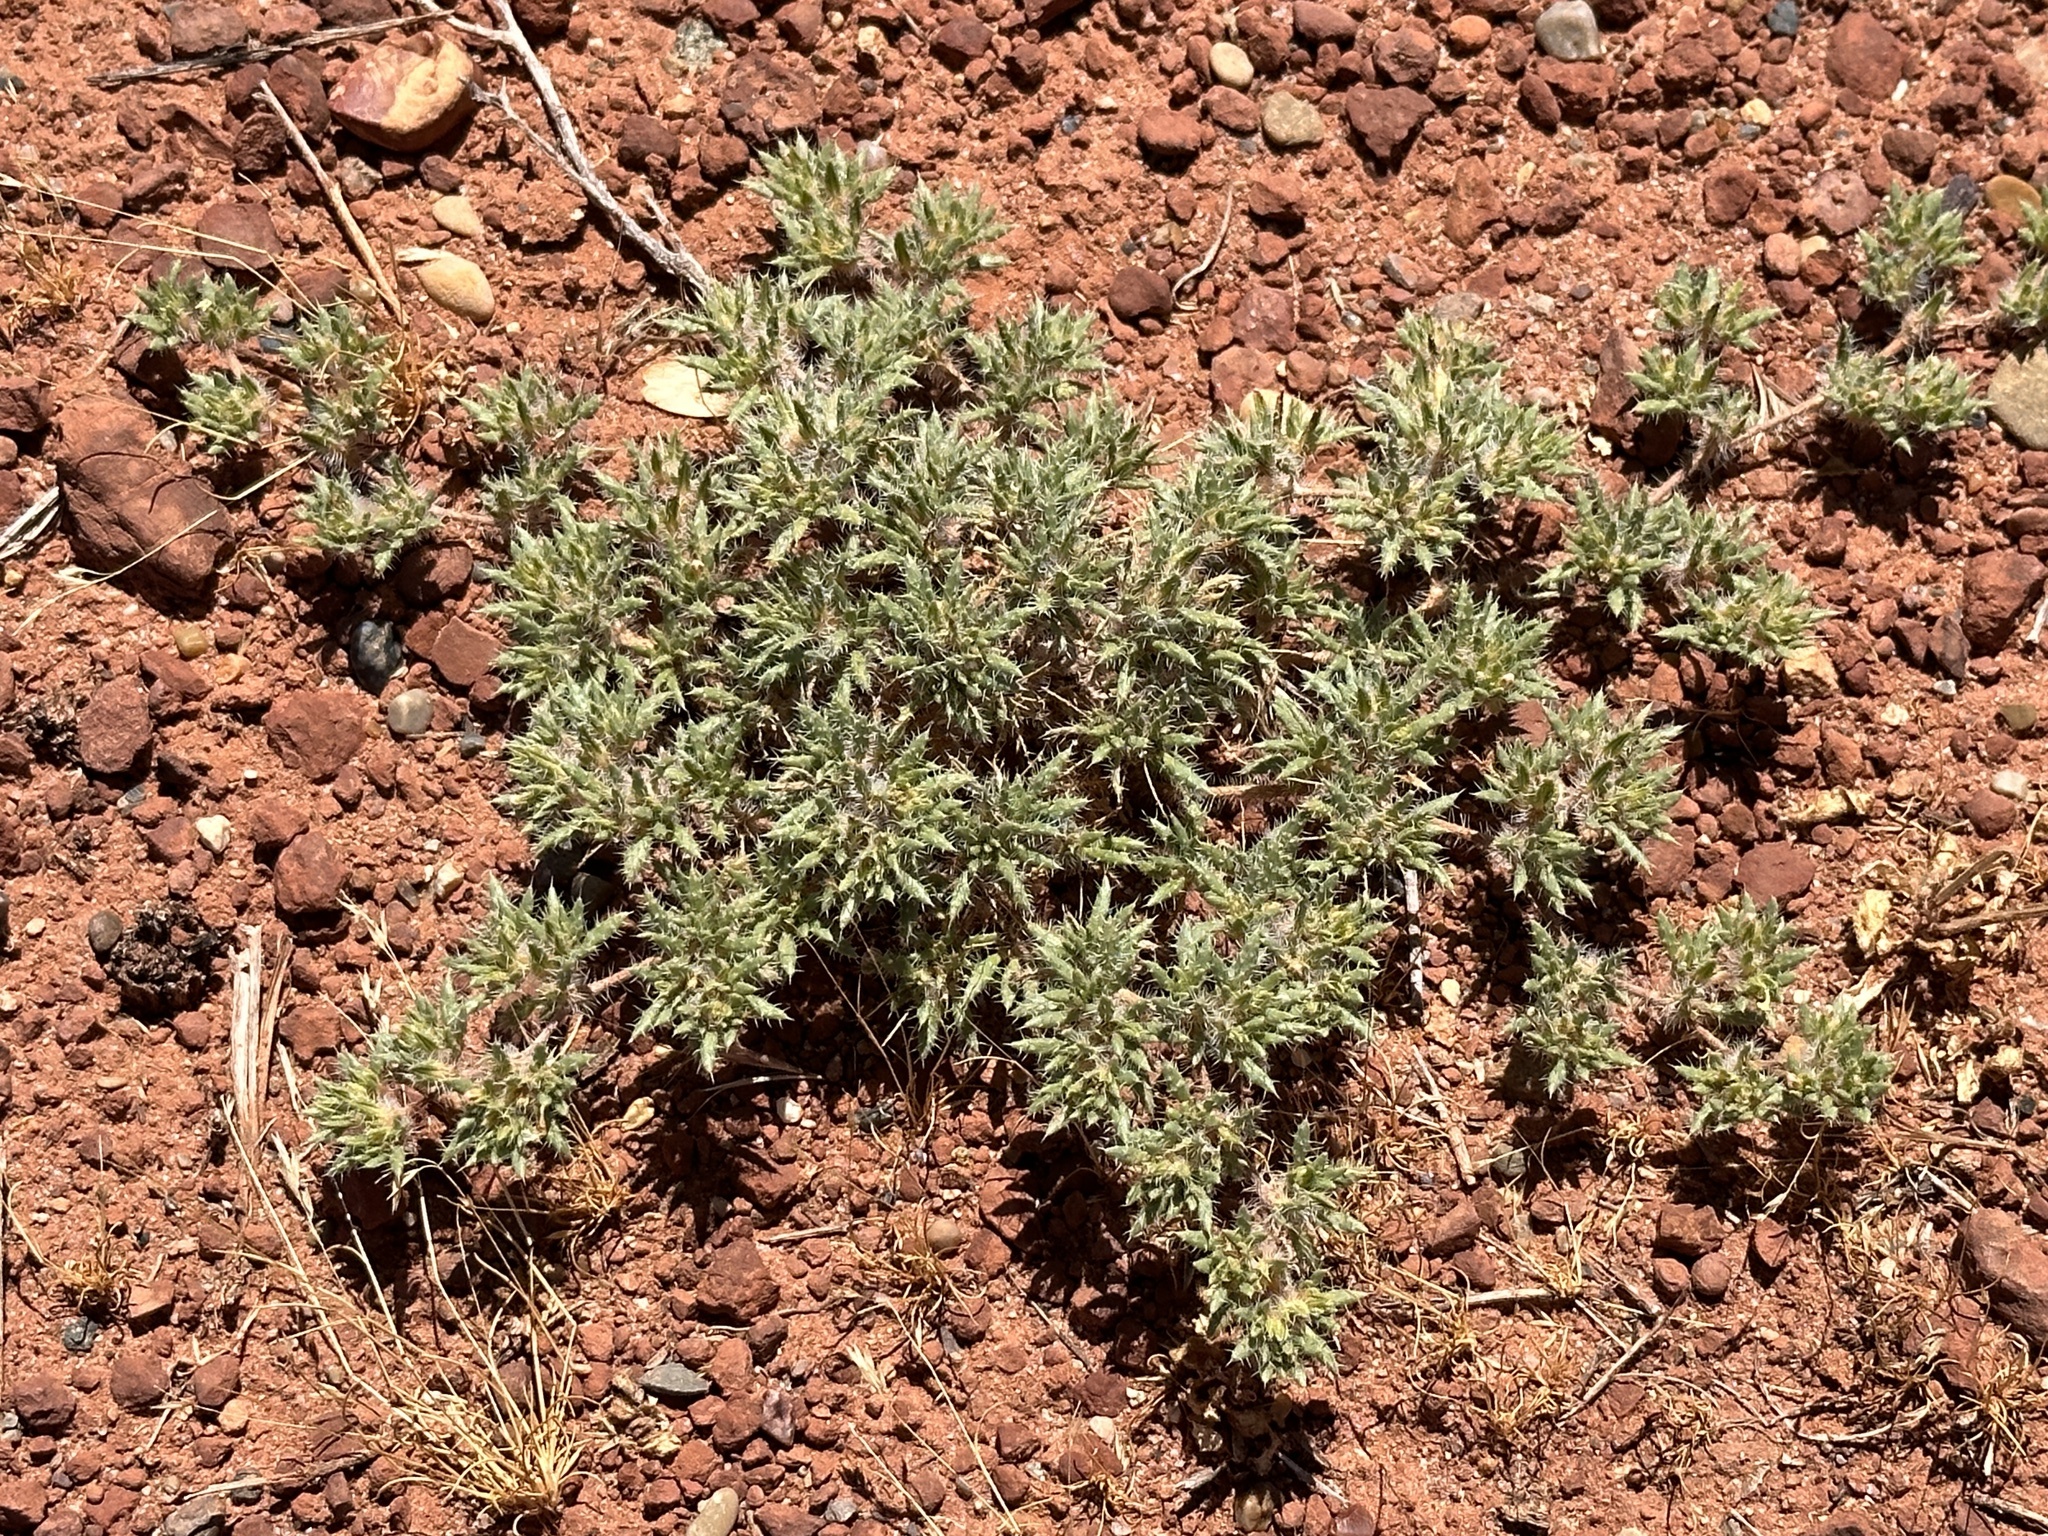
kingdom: Plantae
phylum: Tracheophyta
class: Magnoliopsida
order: Boraginales
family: Ehretiaceae
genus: Tiquilia
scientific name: Tiquilia latior
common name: Matted tiquilia
